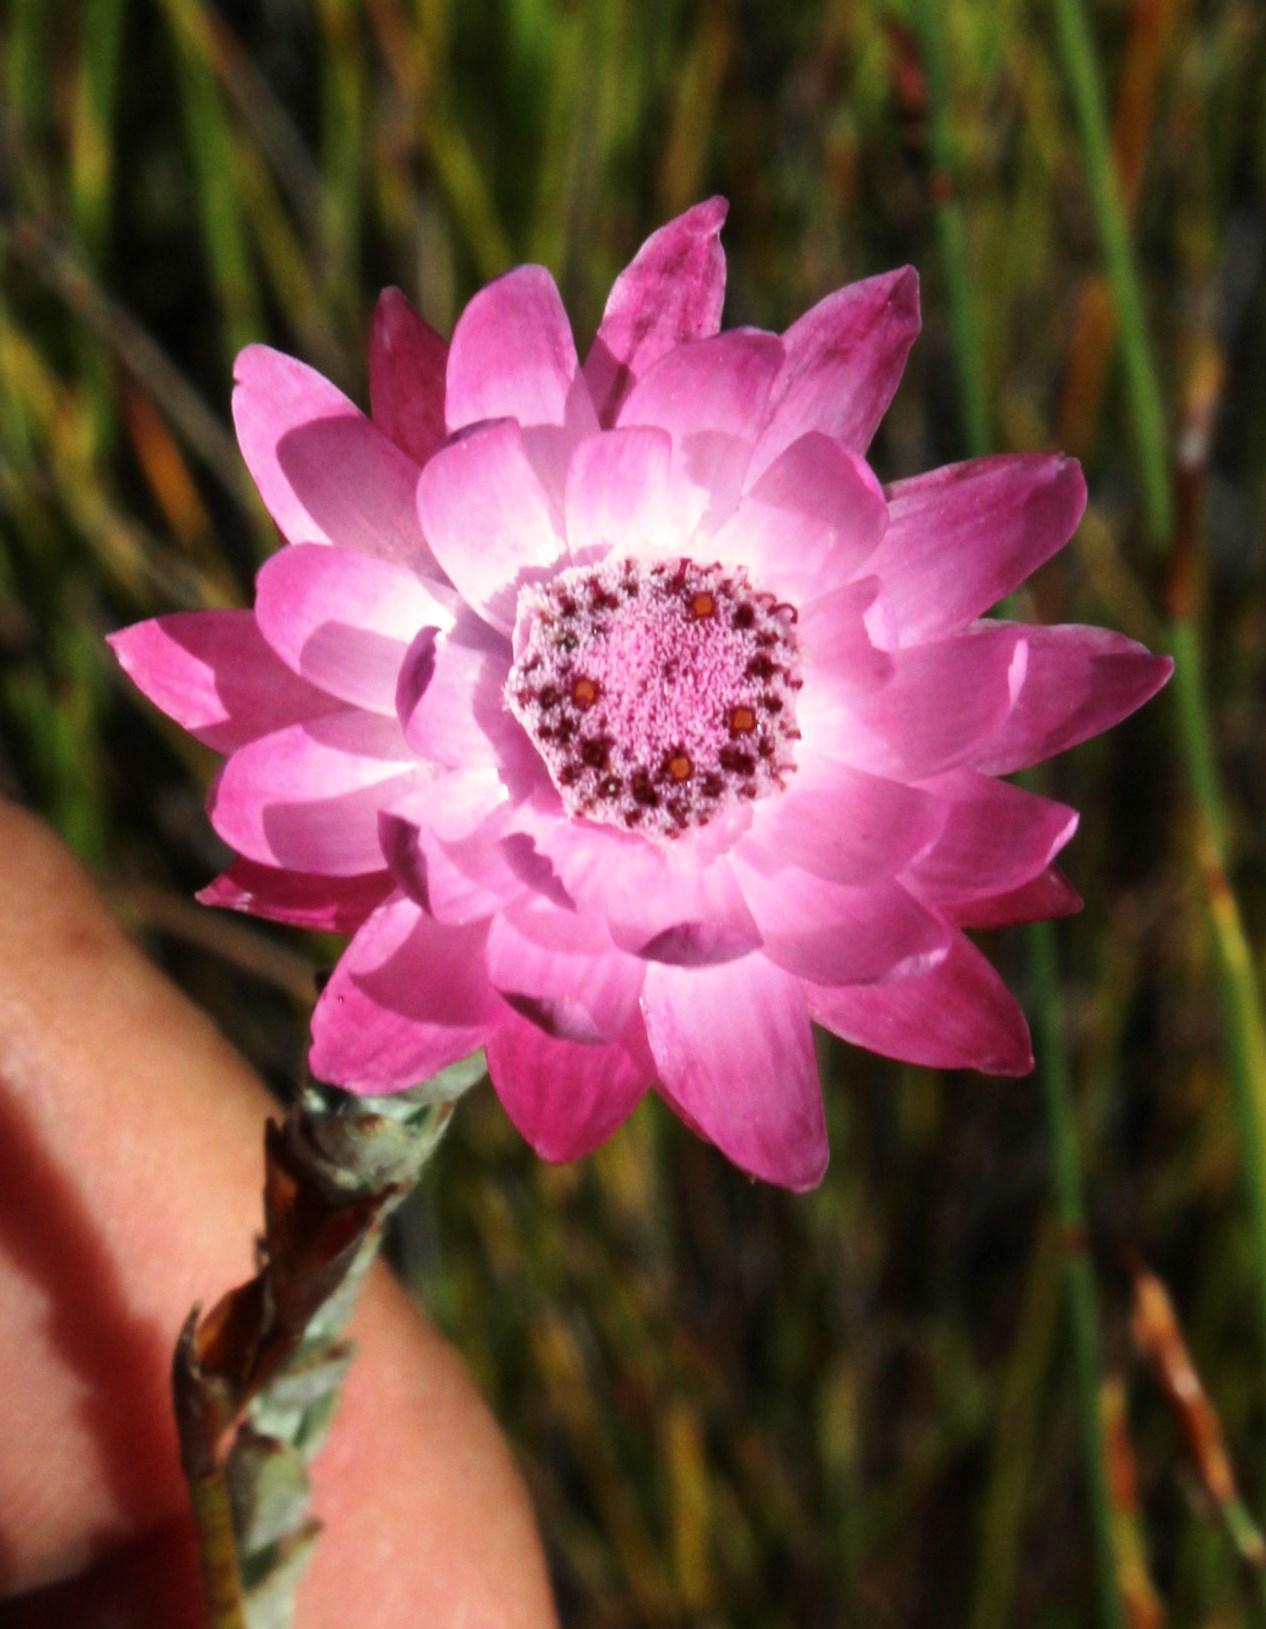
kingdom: Plantae
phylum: Tracheophyta
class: Magnoliopsida
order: Asterales
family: Asteraceae
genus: Syncarpha
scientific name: Syncarpha canescens
